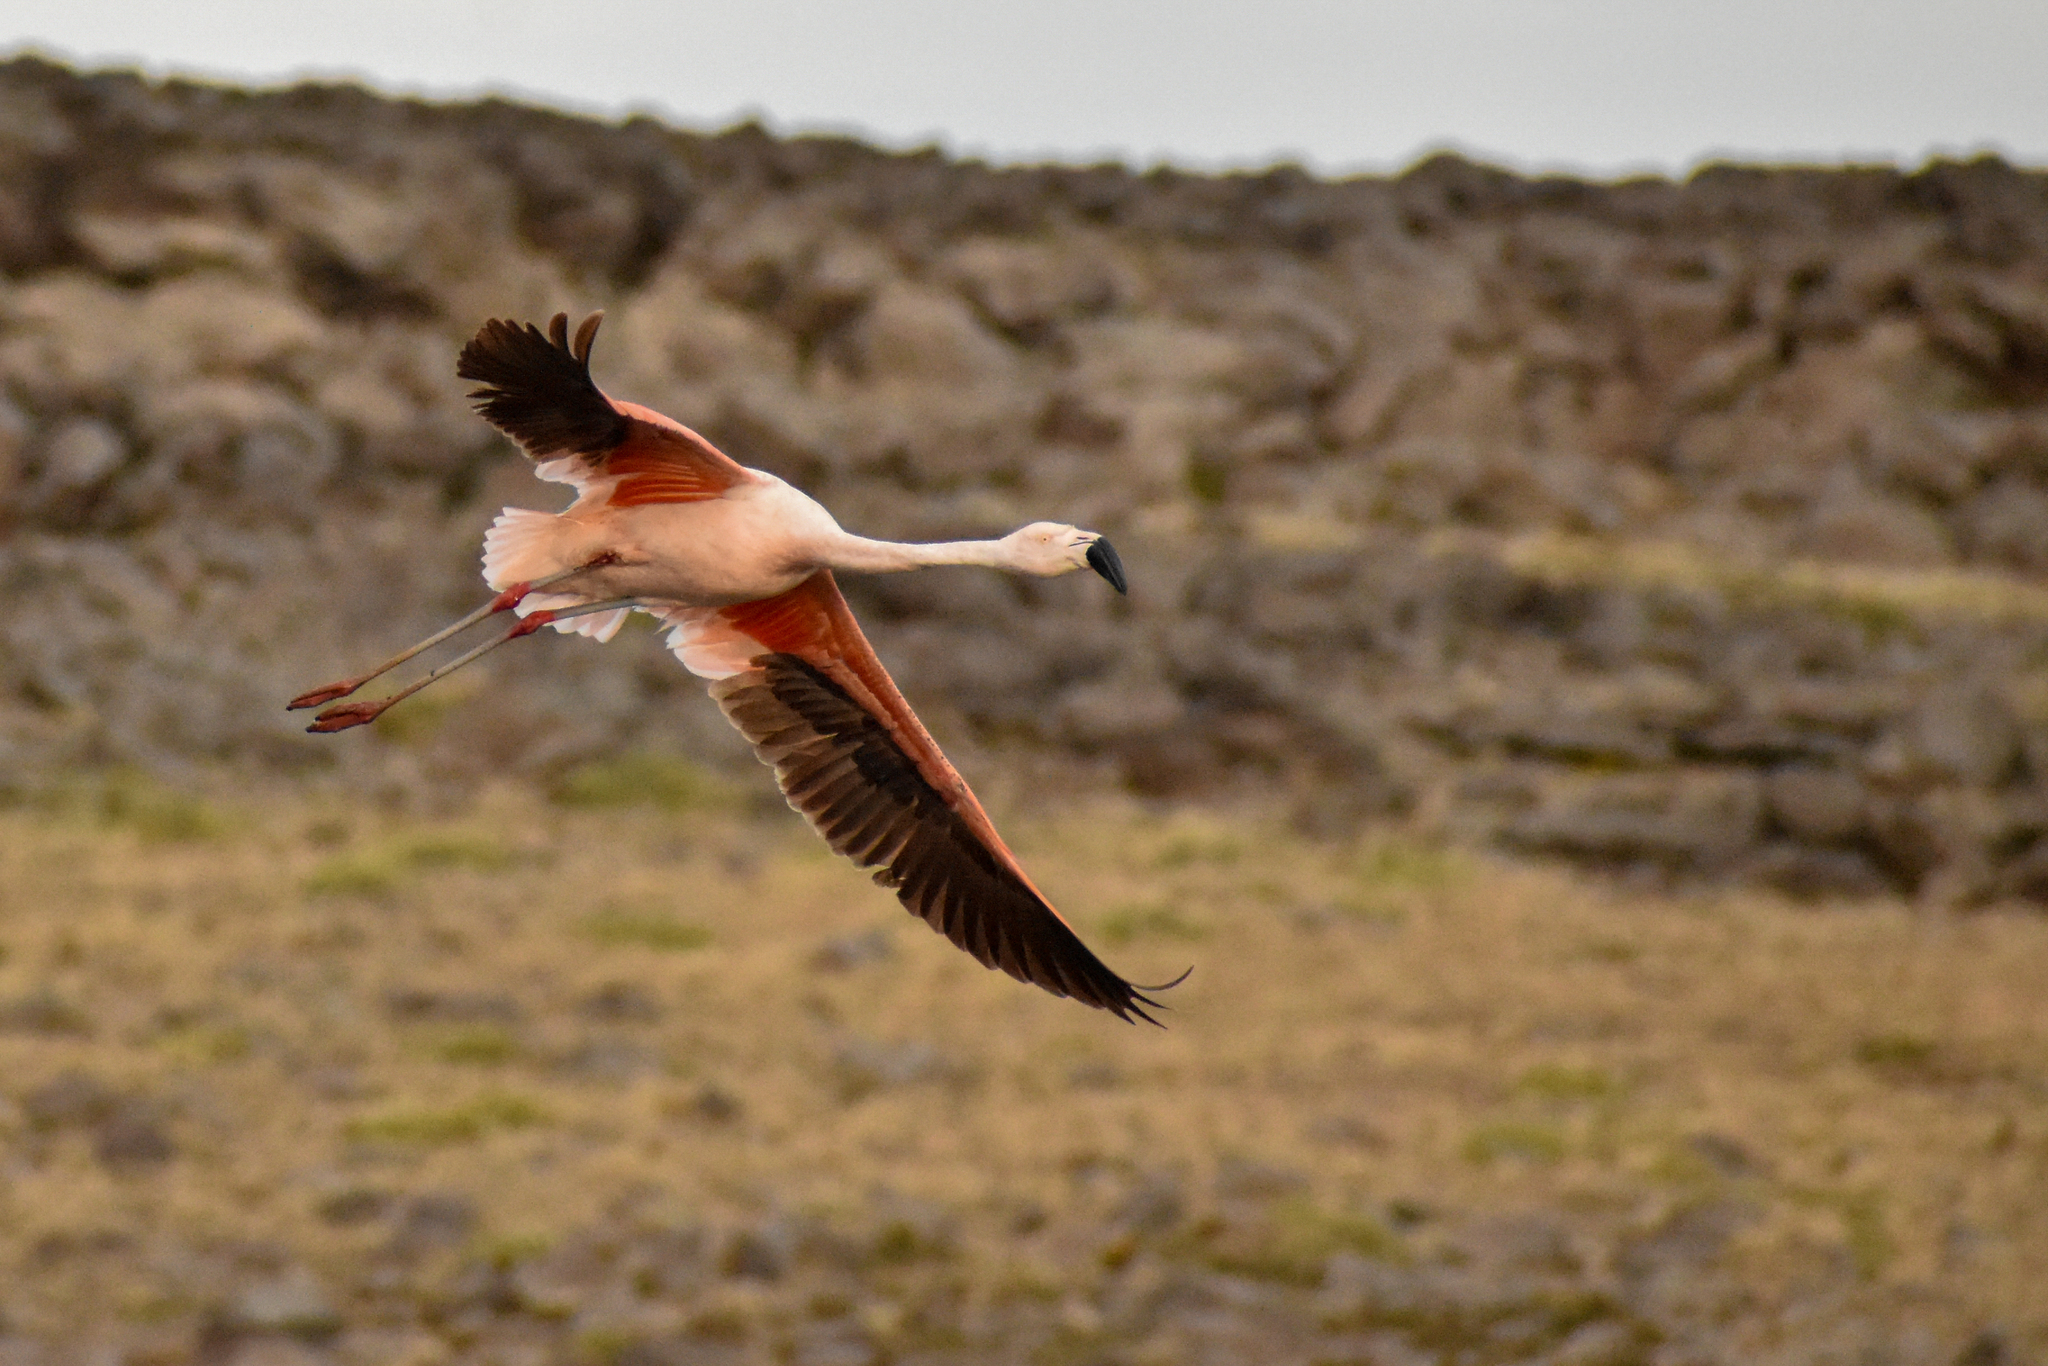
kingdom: Animalia
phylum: Chordata
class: Aves
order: Phoenicopteriformes
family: Phoenicopteridae
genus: Phoenicopterus
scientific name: Phoenicopterus chilensis
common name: Chilean flamingo
